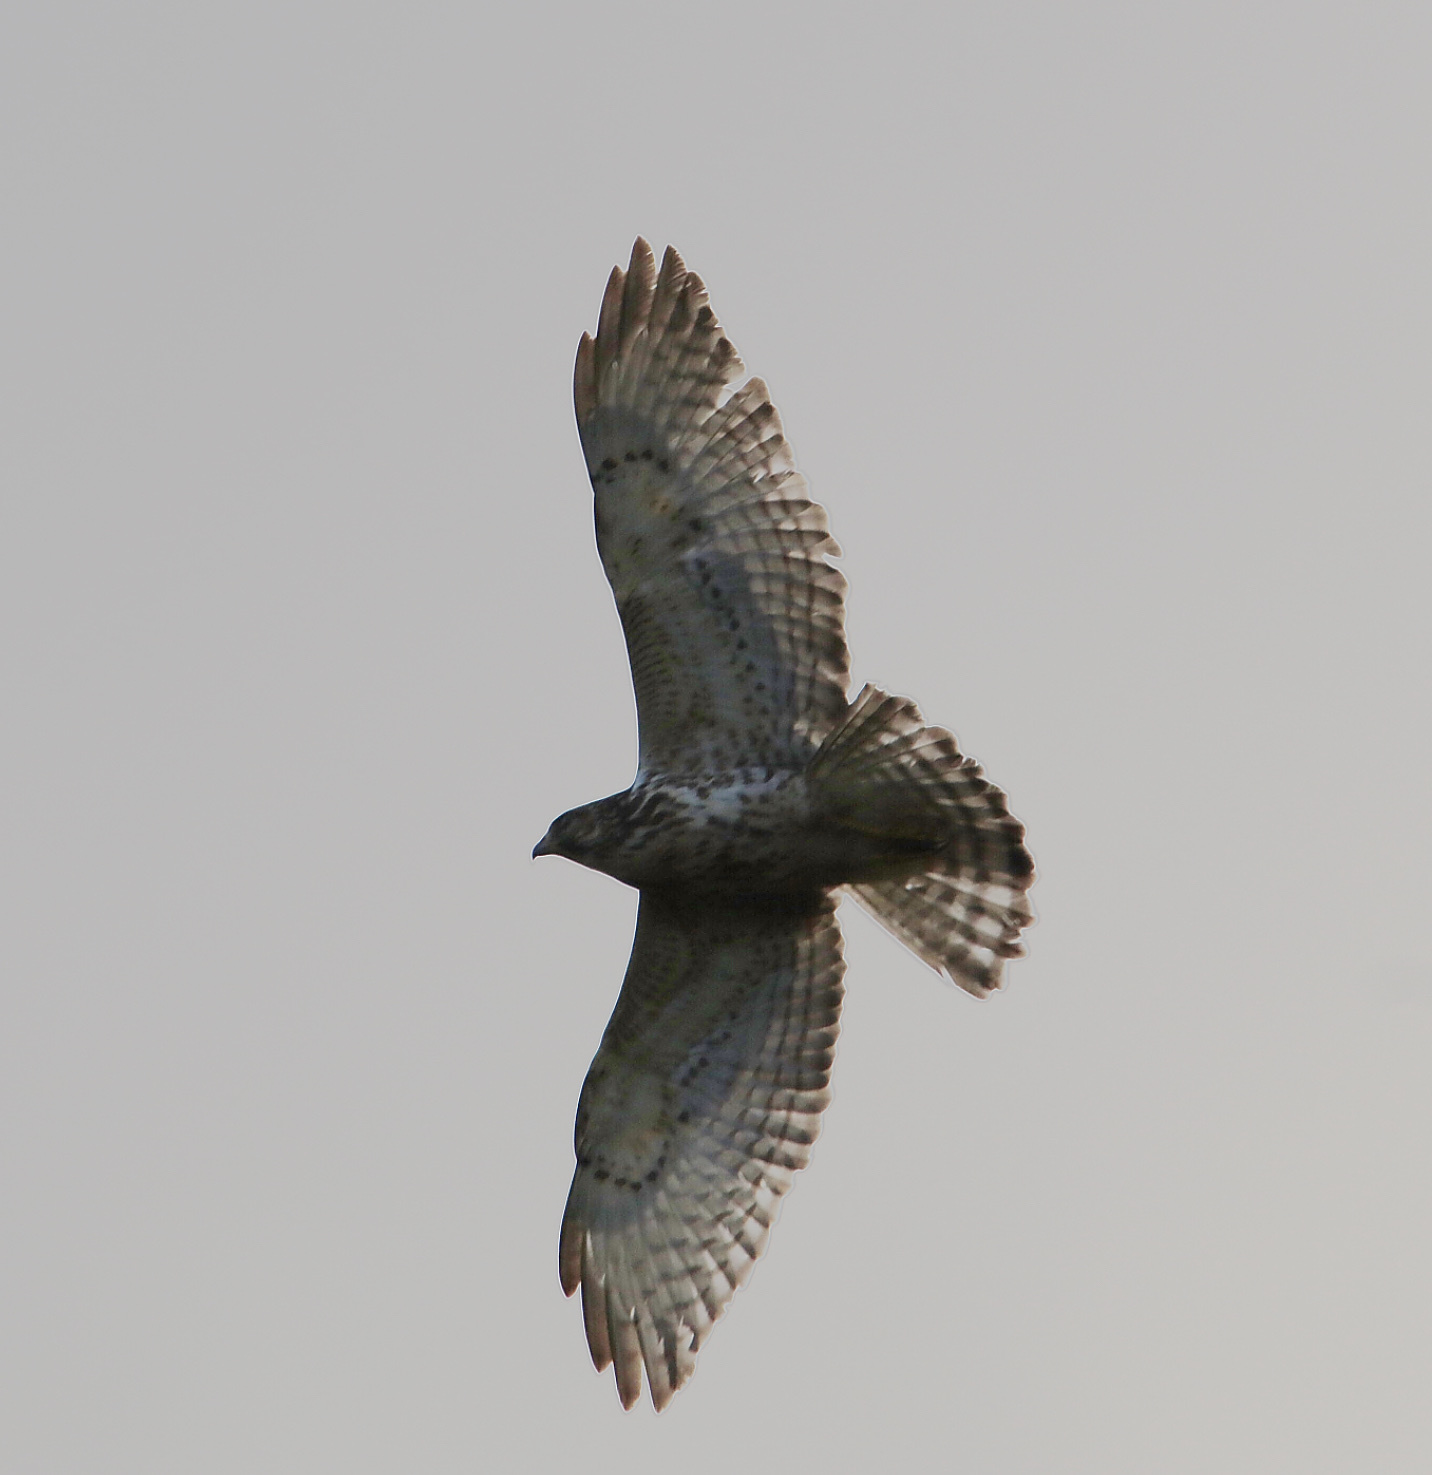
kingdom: Animalia
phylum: Chordata
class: Aves
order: Accipitriformes
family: Accipitridae
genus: Buteo
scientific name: Buteo platypterus
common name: Broad-winged hawk
